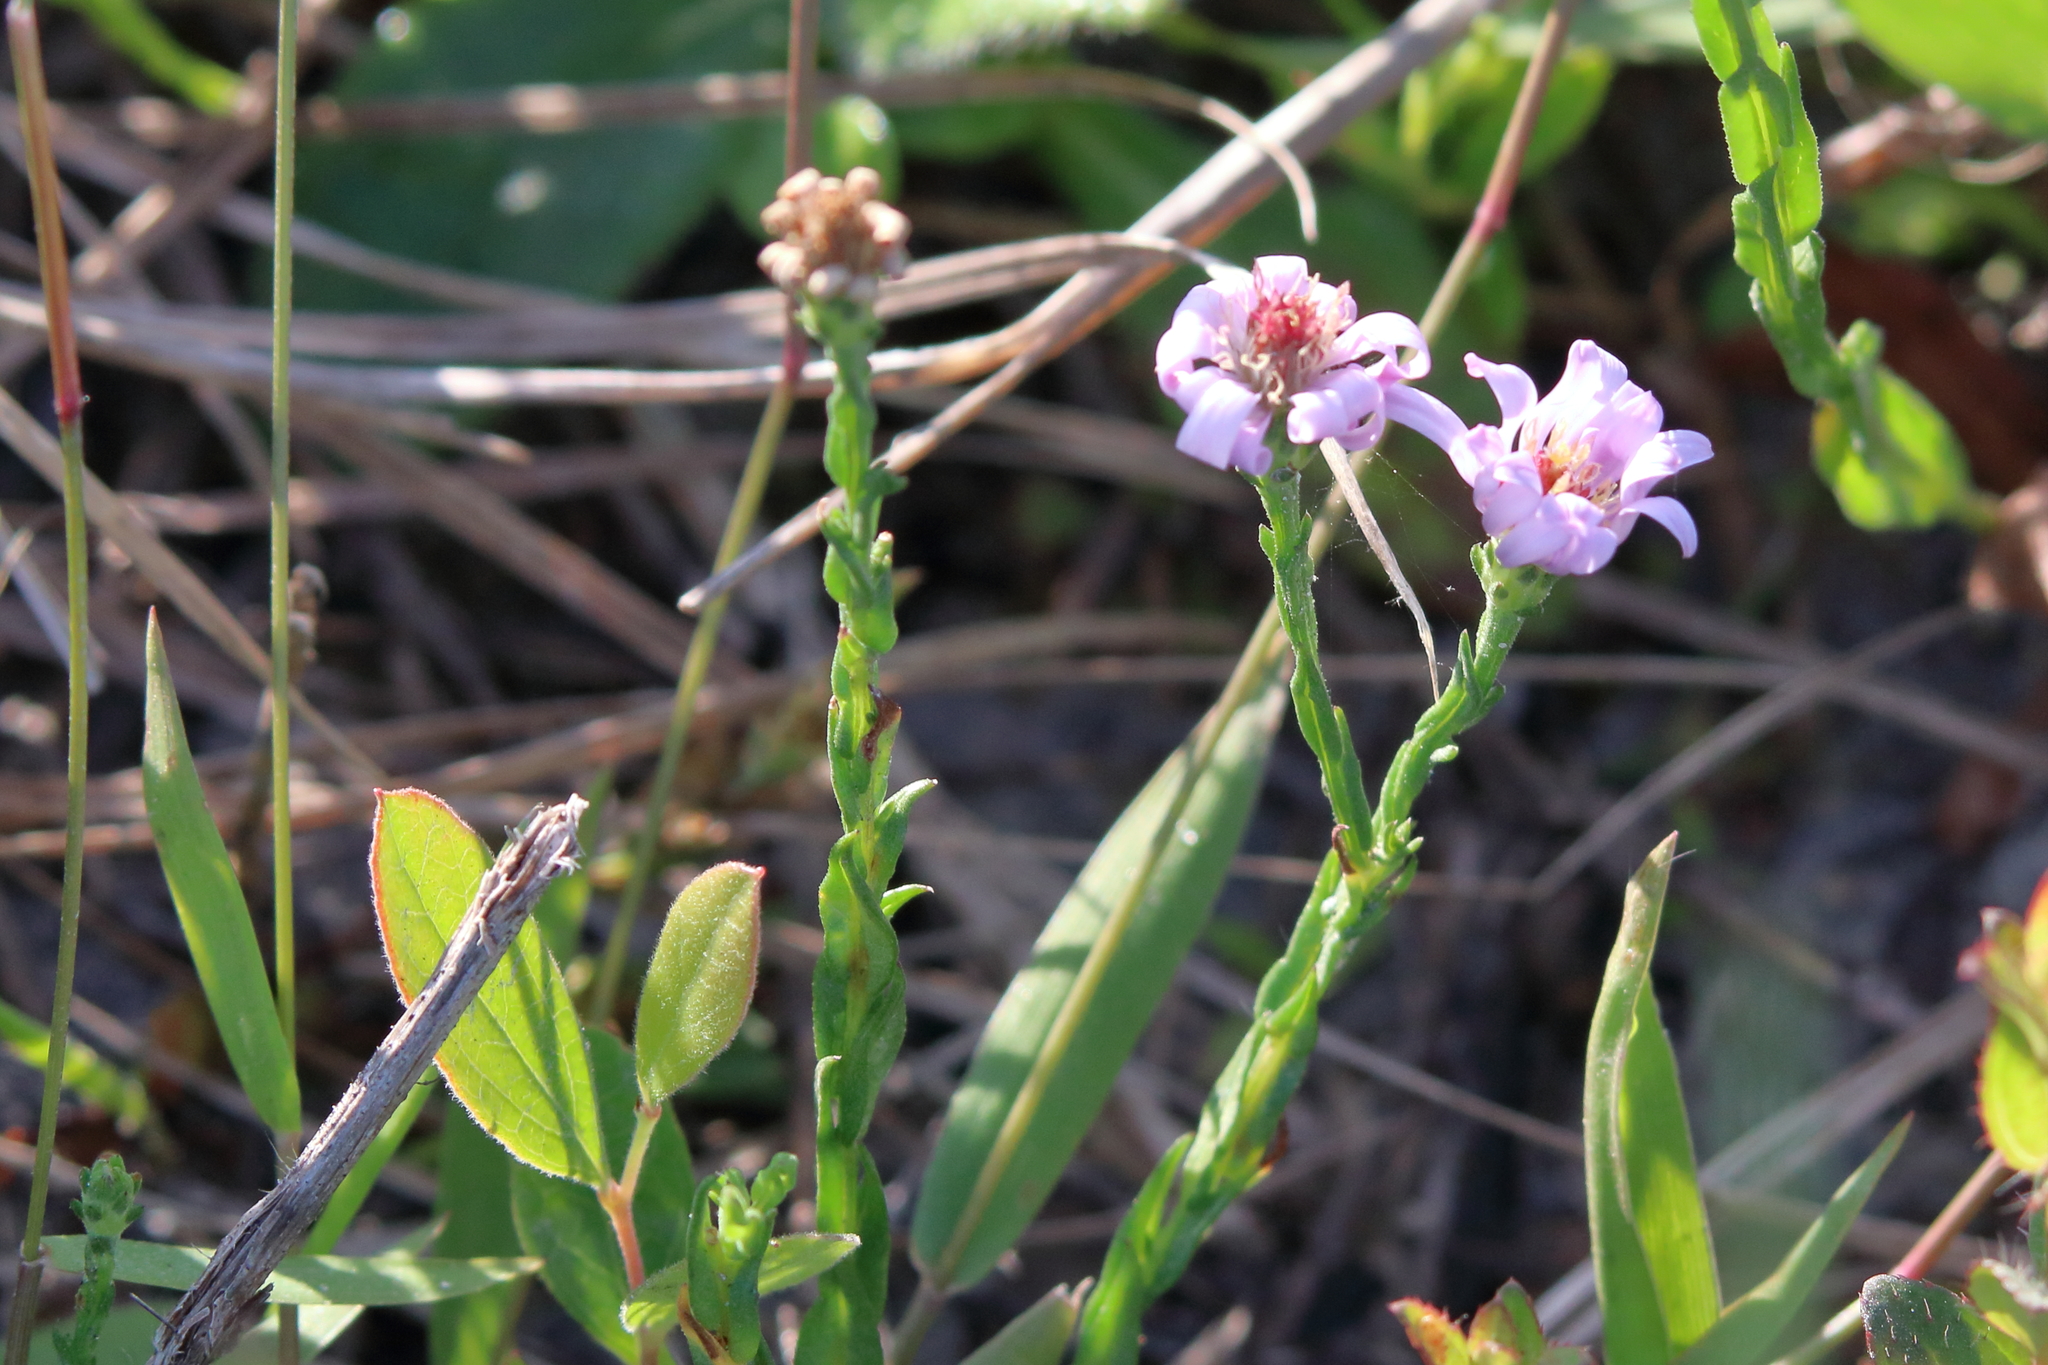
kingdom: Plantae
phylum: Tracheophyta
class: Magnoliopsida
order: Asterales
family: Asteraceae
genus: Symphyotrichum
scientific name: Symphyotrichum adnatum
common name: Scale-leaf aster
